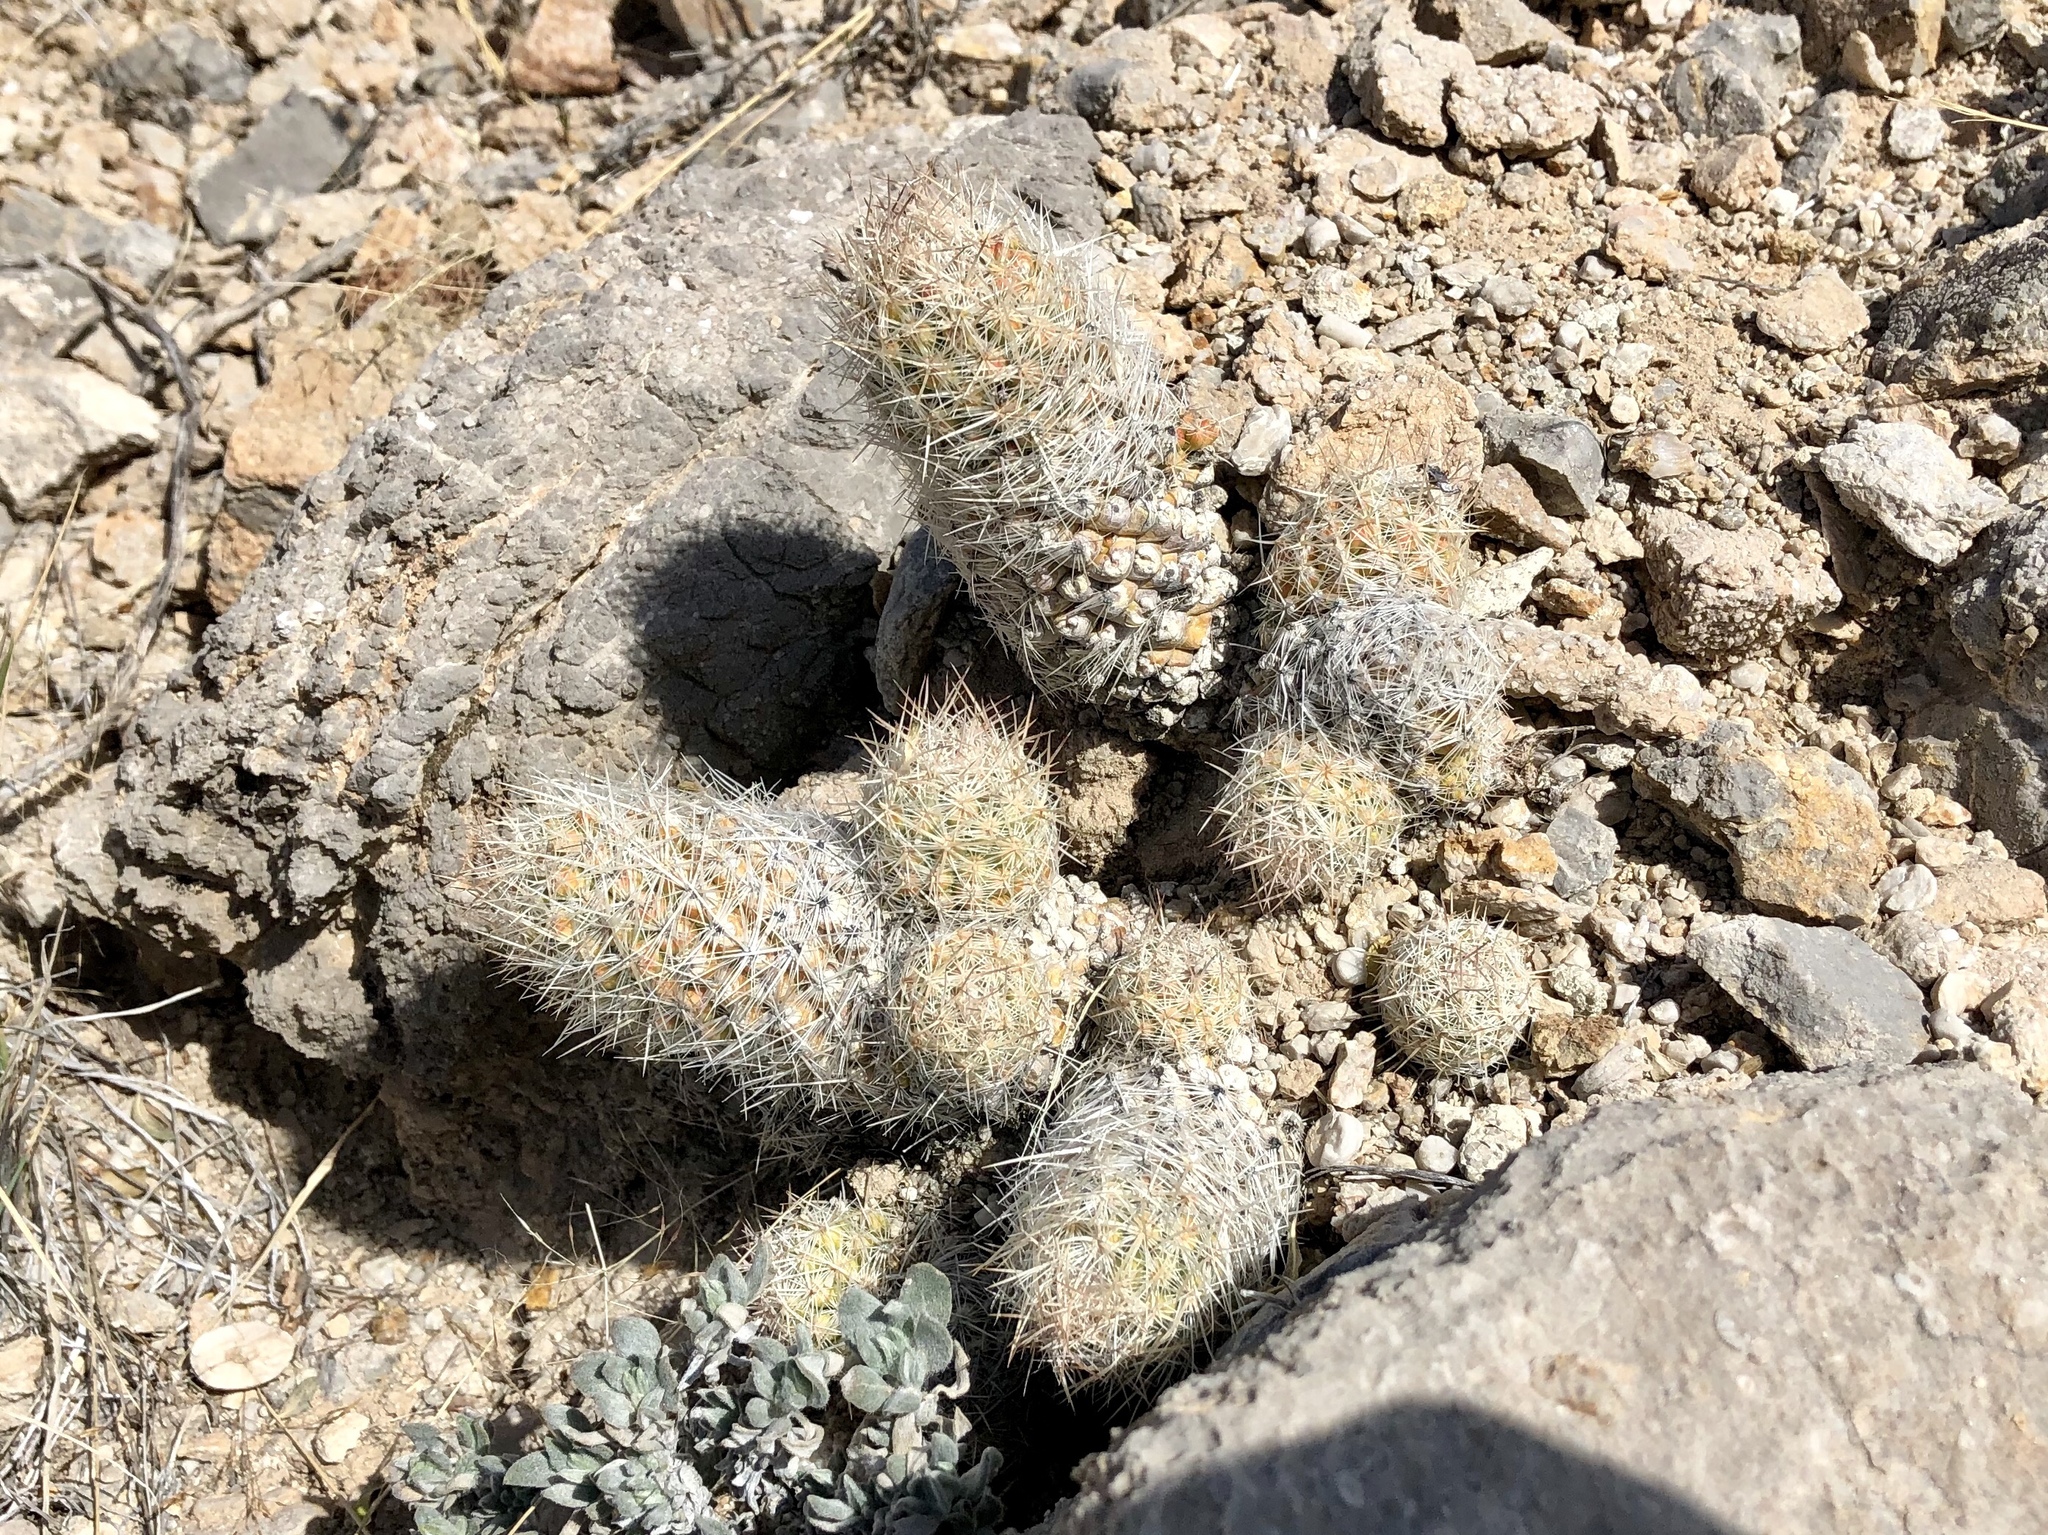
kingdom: Plantae
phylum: Tracheophyta
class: Magnoliopsida
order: Caryophyllales
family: Cactaceae
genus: Pelecyphora
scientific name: Pelecyphora tuberculosa
